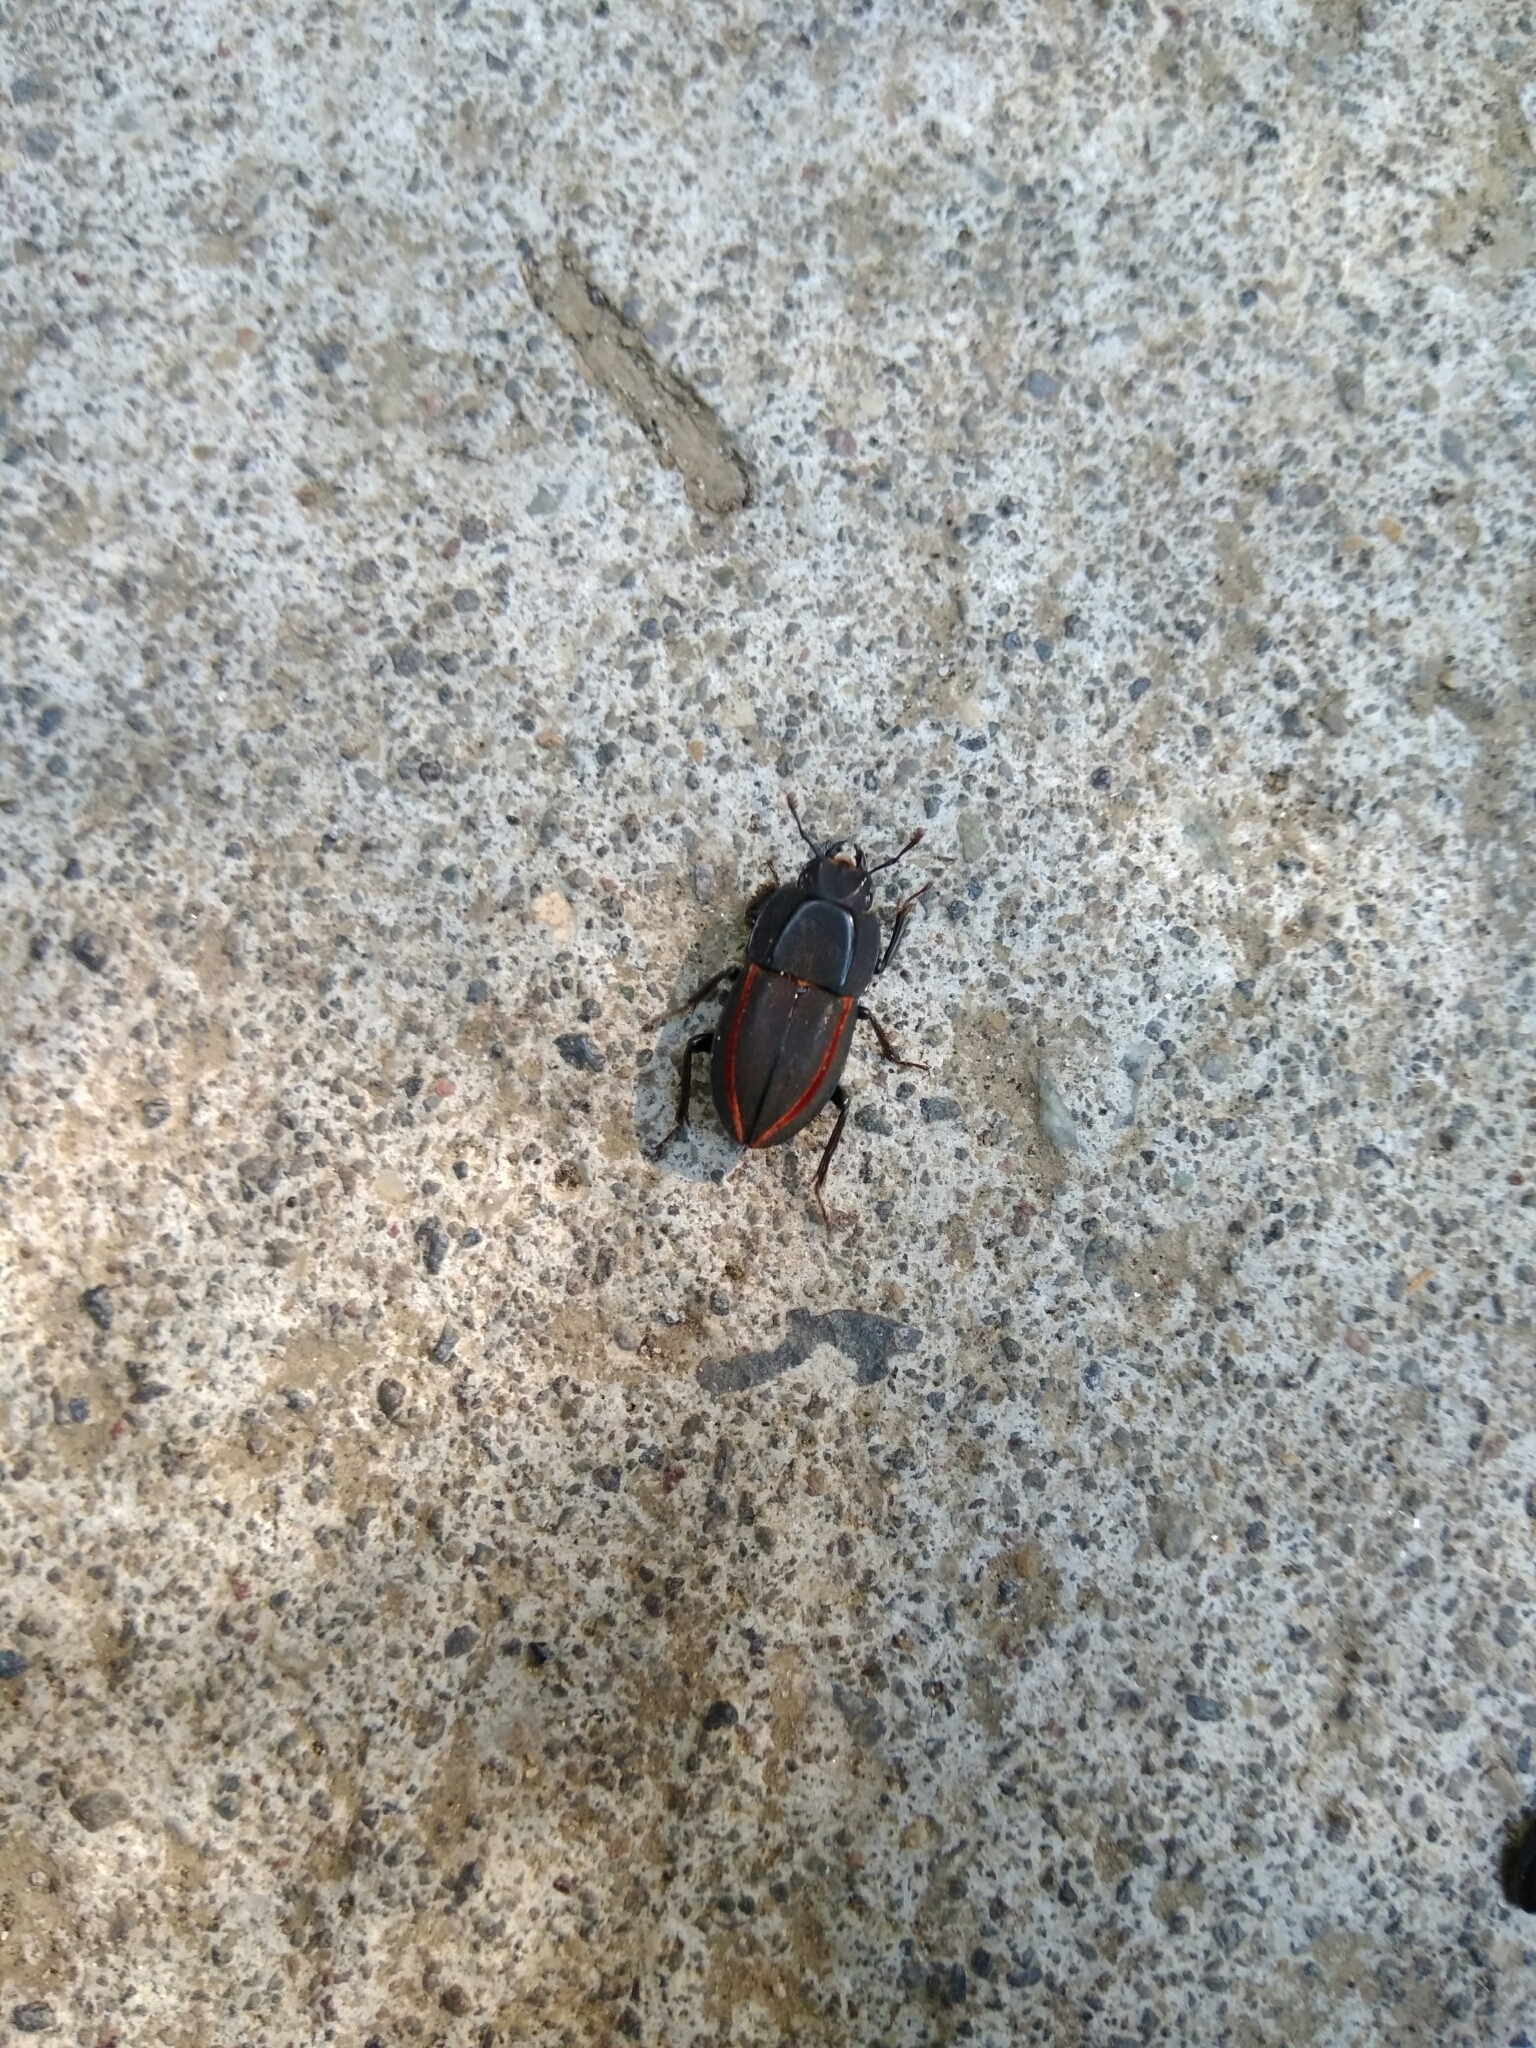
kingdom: Animalia
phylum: Arthropoda
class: Insecta
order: Coleoptera
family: Lucanidae
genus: Erichius
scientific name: Erichius vittatus
